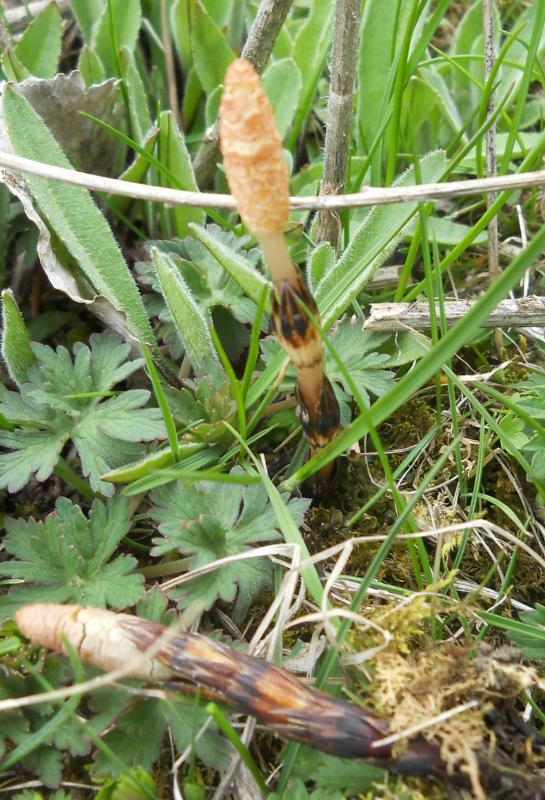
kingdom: Plantae
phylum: Tracheophyta
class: Polypodiopsida
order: Equisetales
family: Equisetaceae
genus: Equisetum
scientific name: Equisetum arvense
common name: Field horsetail
